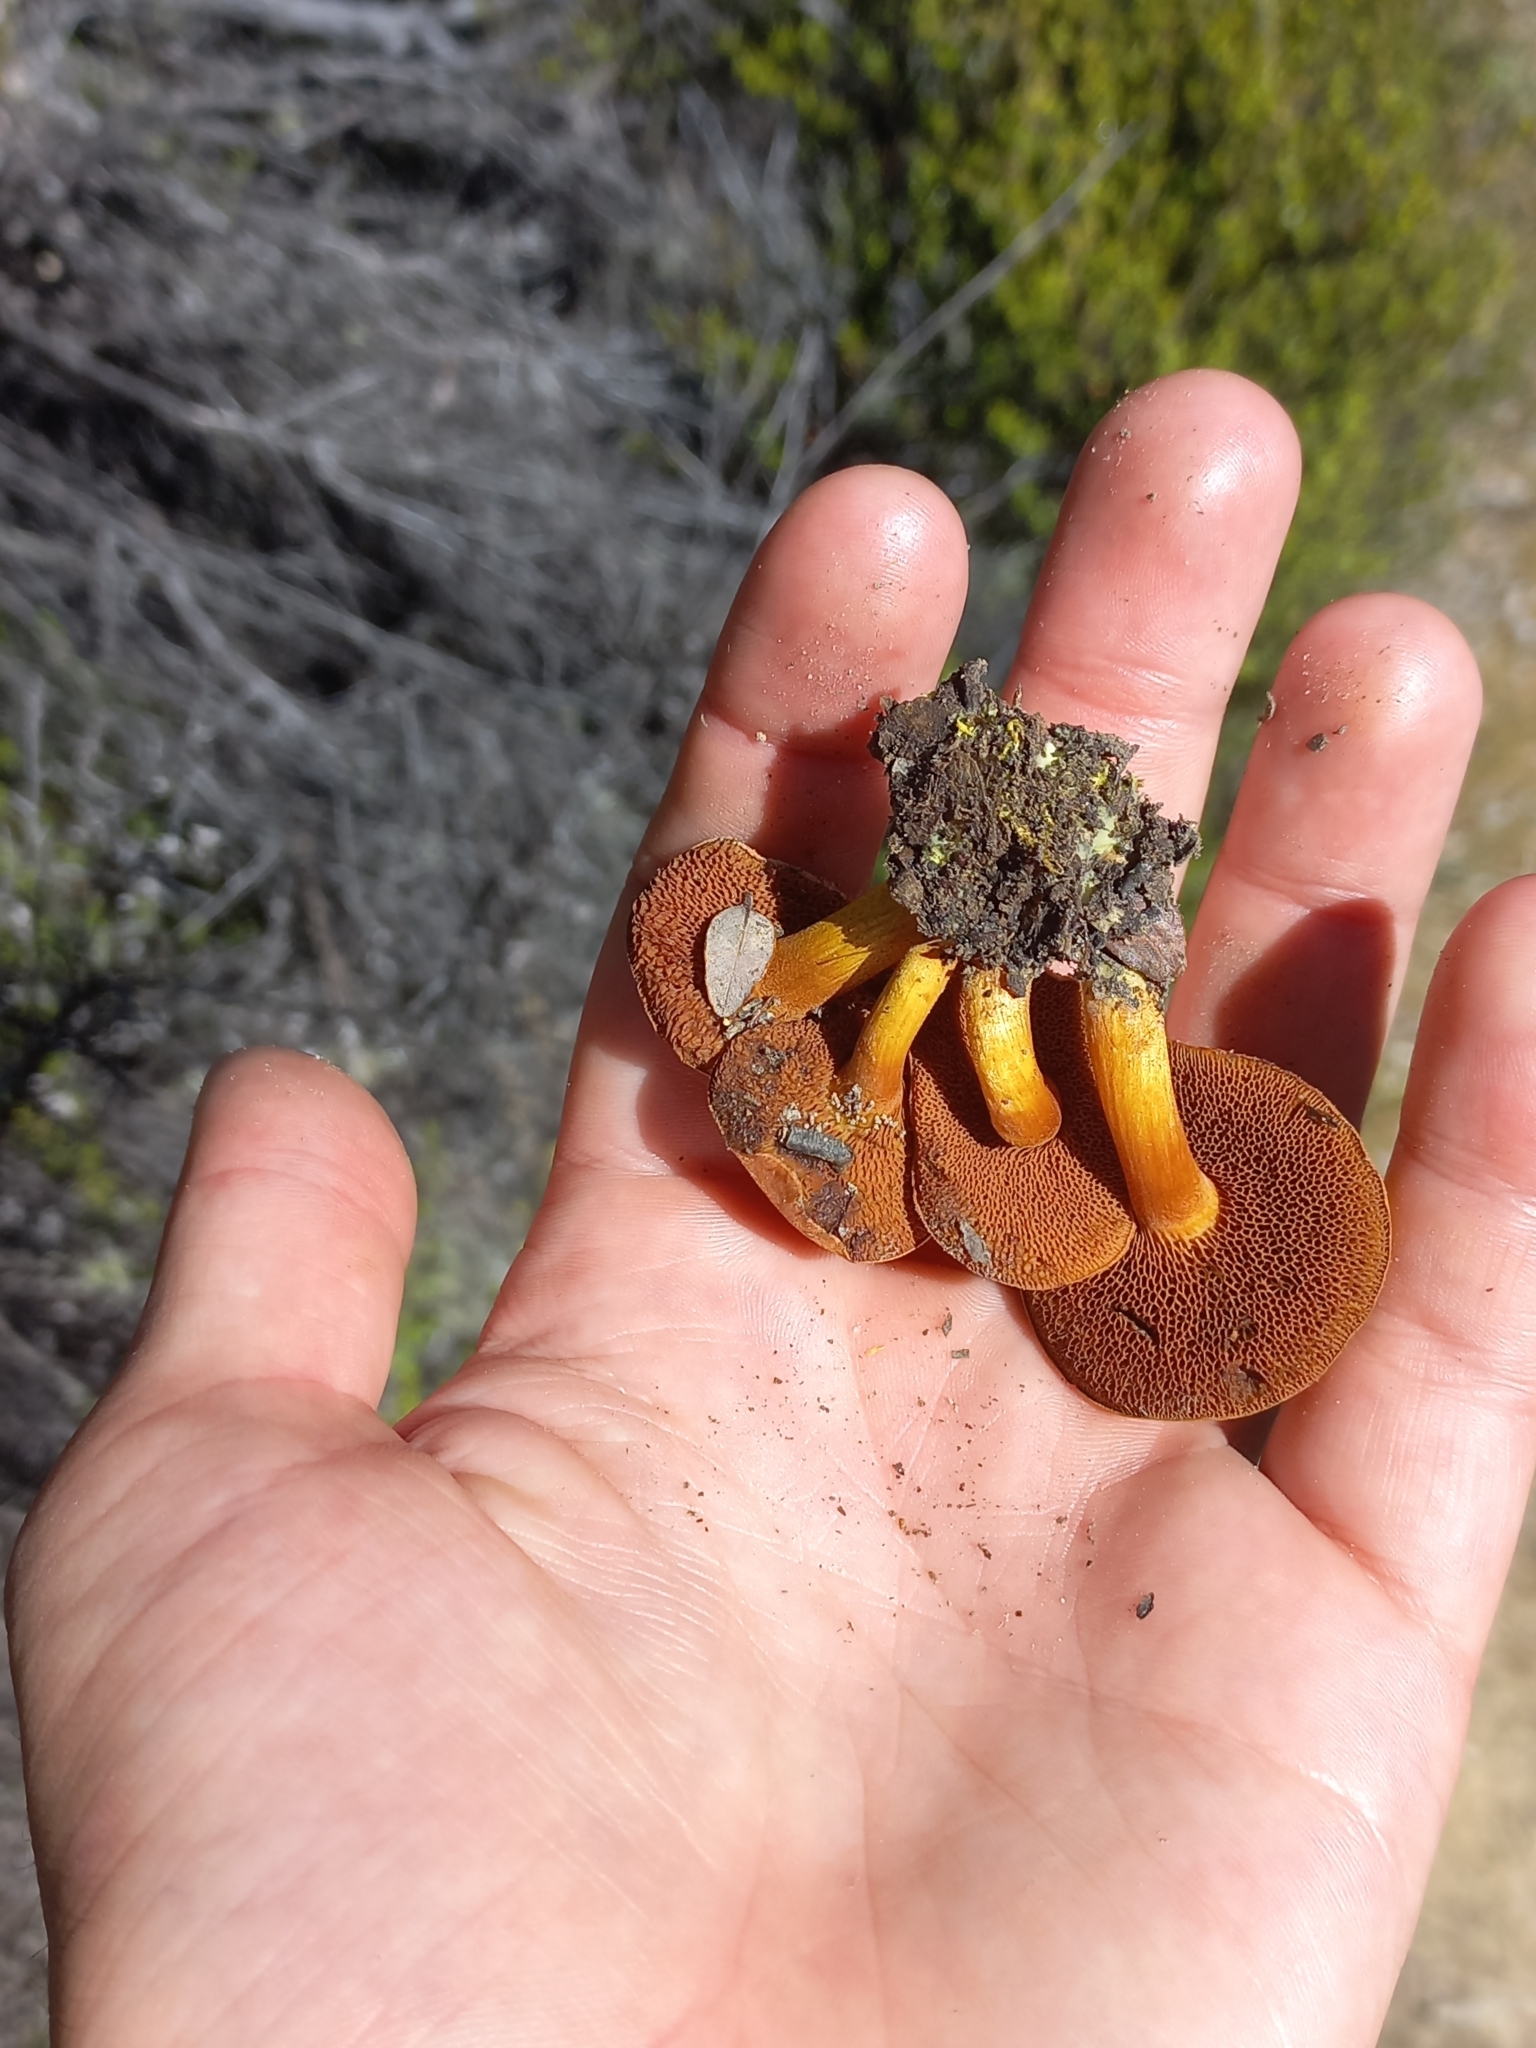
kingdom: Fungi
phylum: Basidiomycota
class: Agaricomycetes
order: Boletales
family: Boletaceae
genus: Chalciporus
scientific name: Chalciporus piperatus
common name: Peppery bolete
